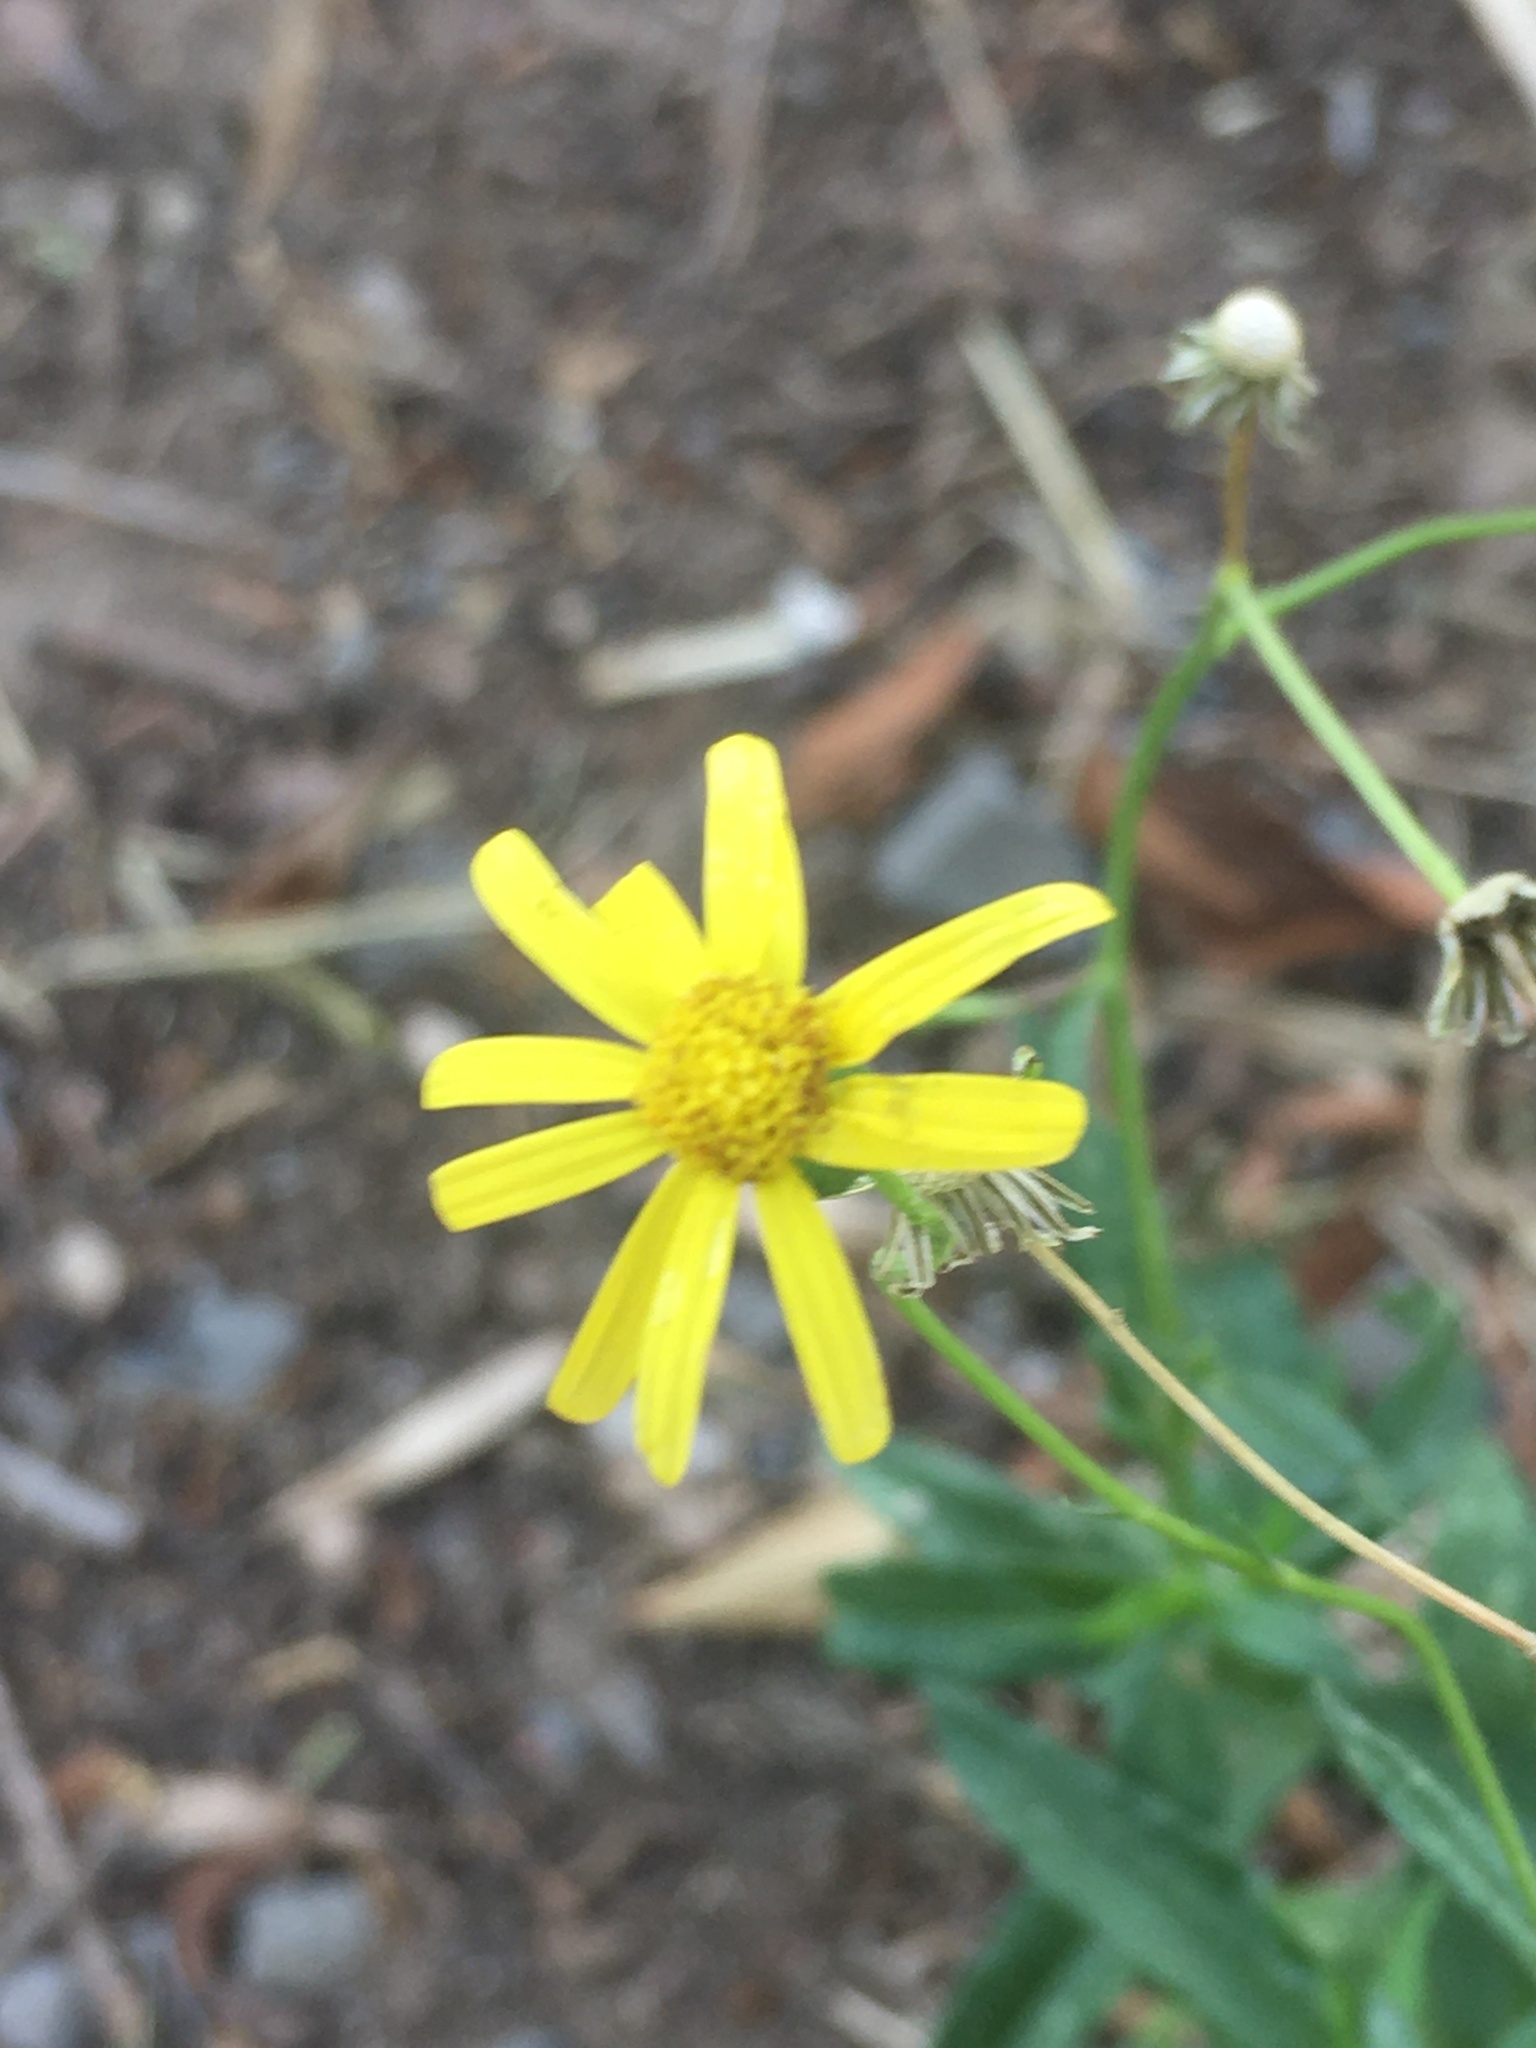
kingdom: Plantae
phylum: Tracheophyta
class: Magnoliopsida
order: Asterales
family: Asteraceae
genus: Senecio
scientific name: Senecio inaequidens
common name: Narrow-leaved ragwort
